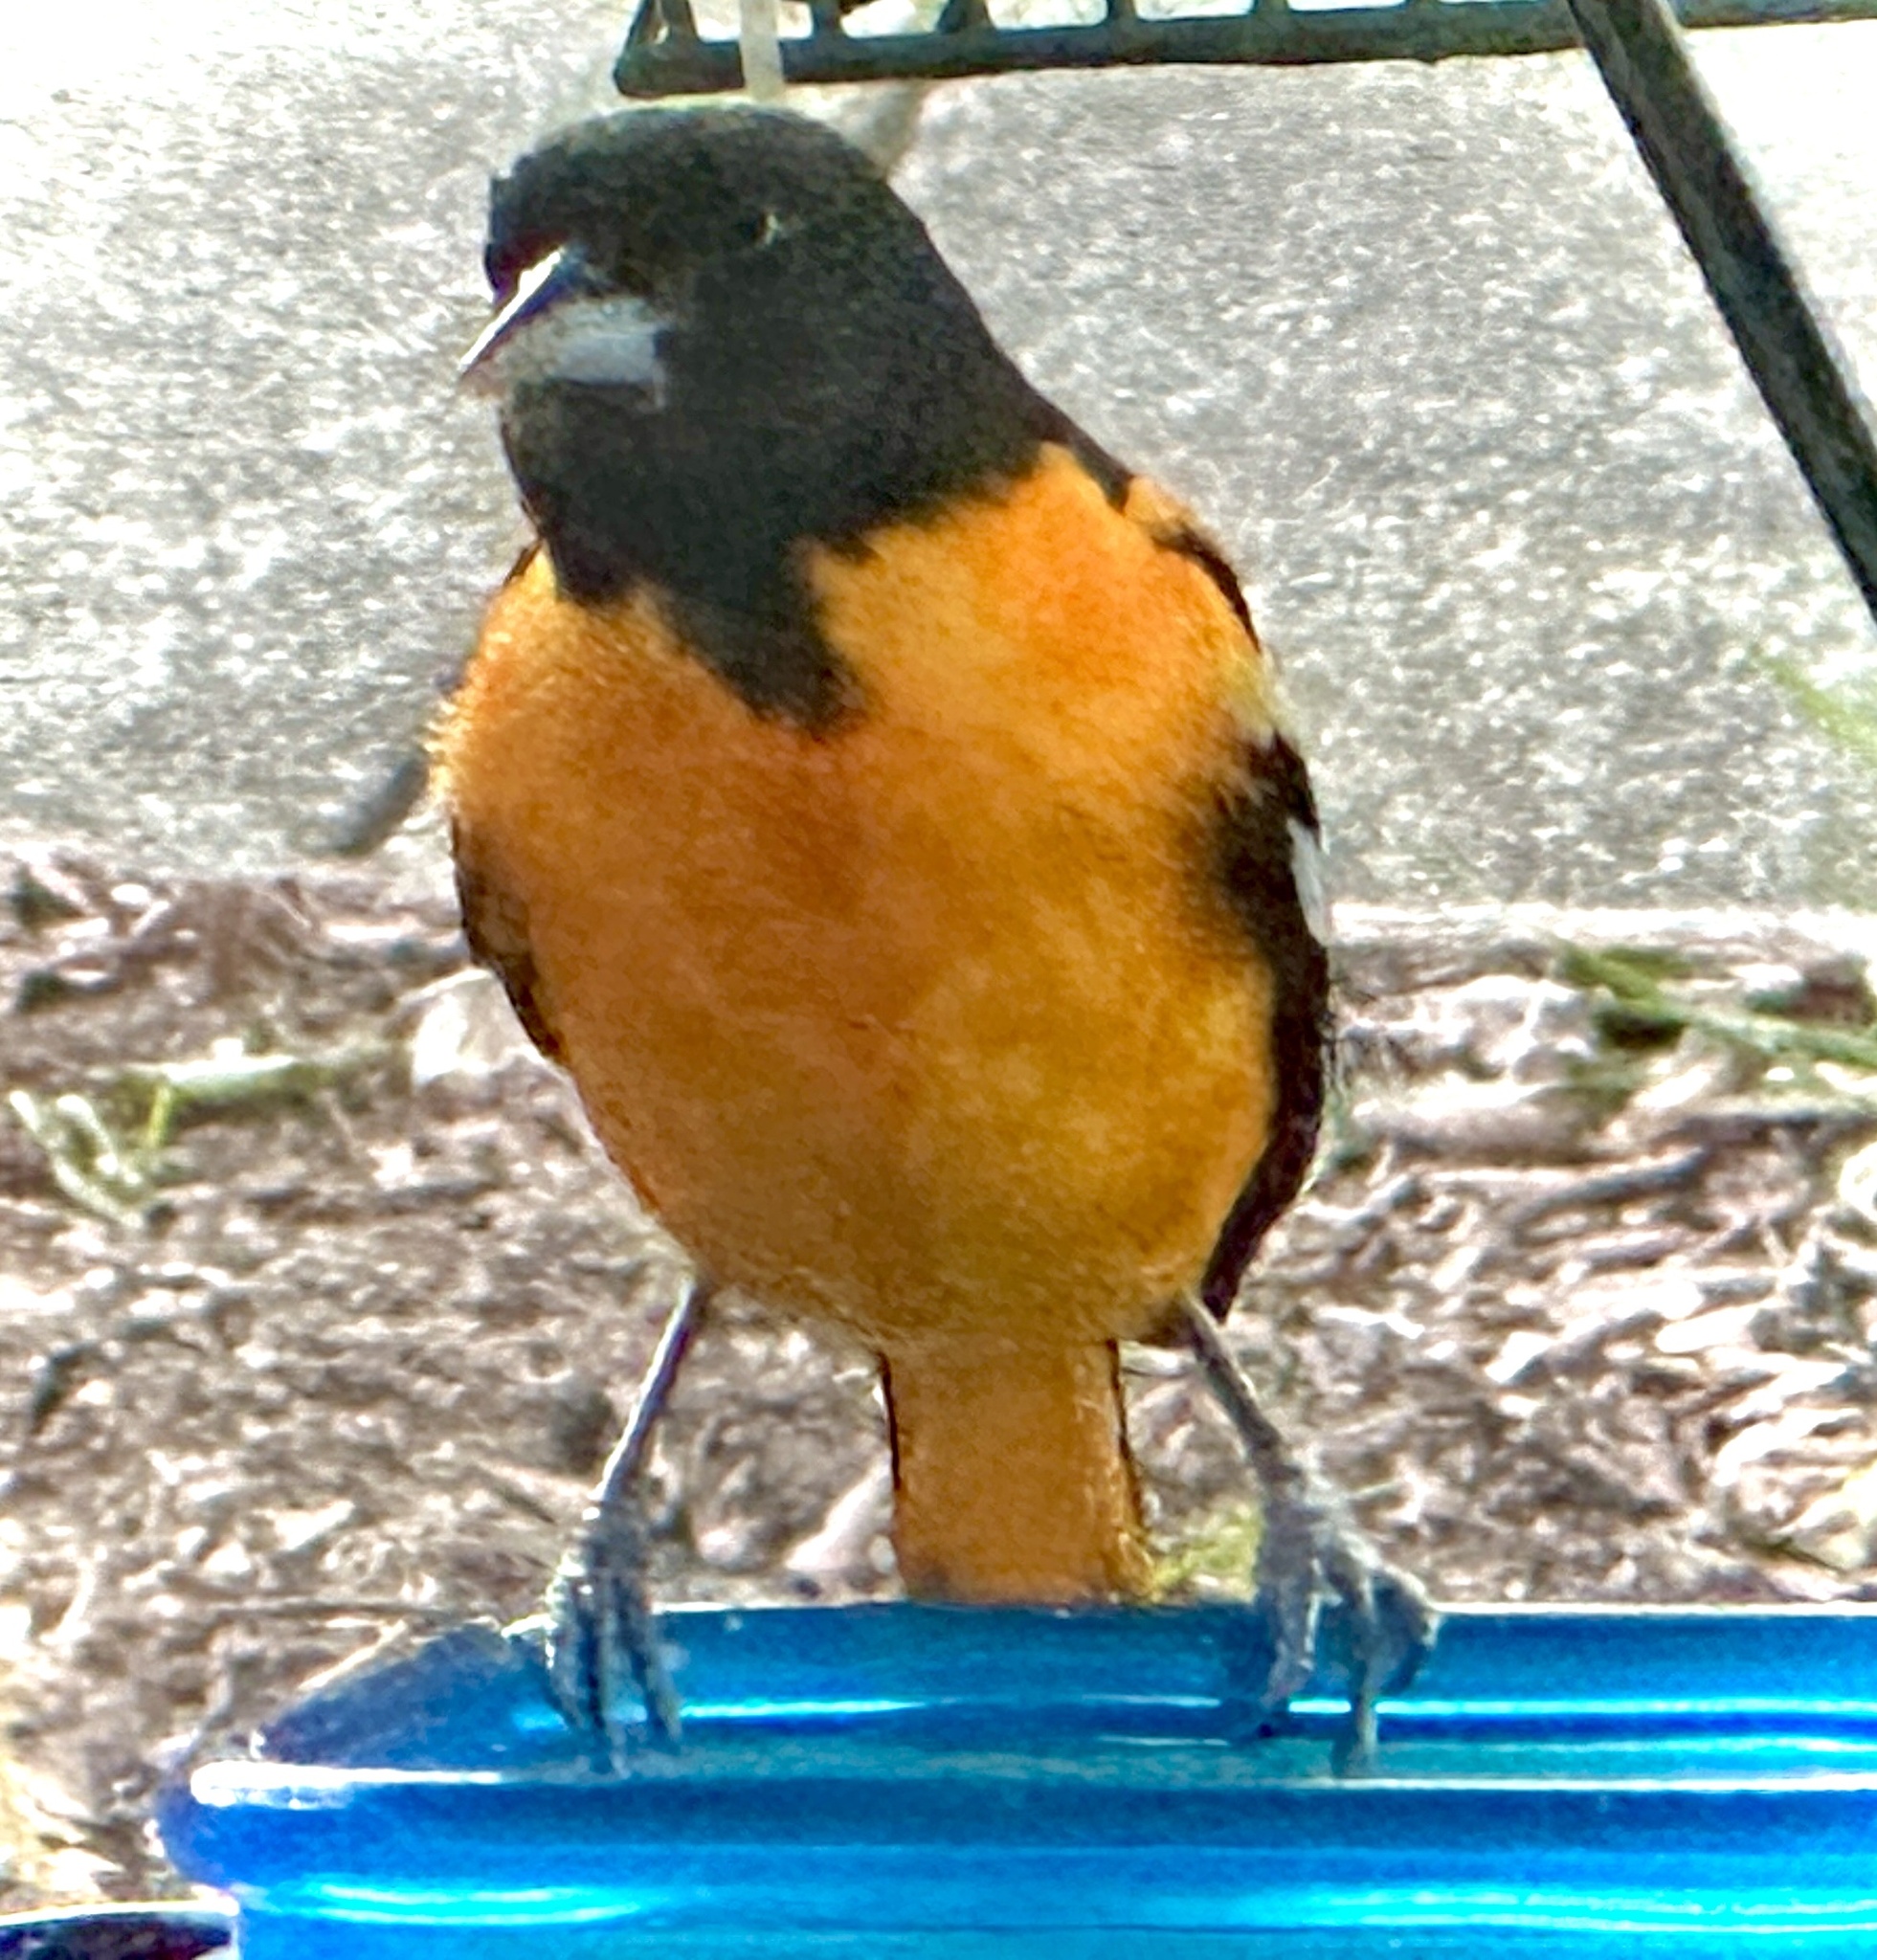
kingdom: Animalia
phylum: Chordata
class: Aves
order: Passeriformes
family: Icteridae
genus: Icterus
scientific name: Icterus galbula
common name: Baltimore oriole
